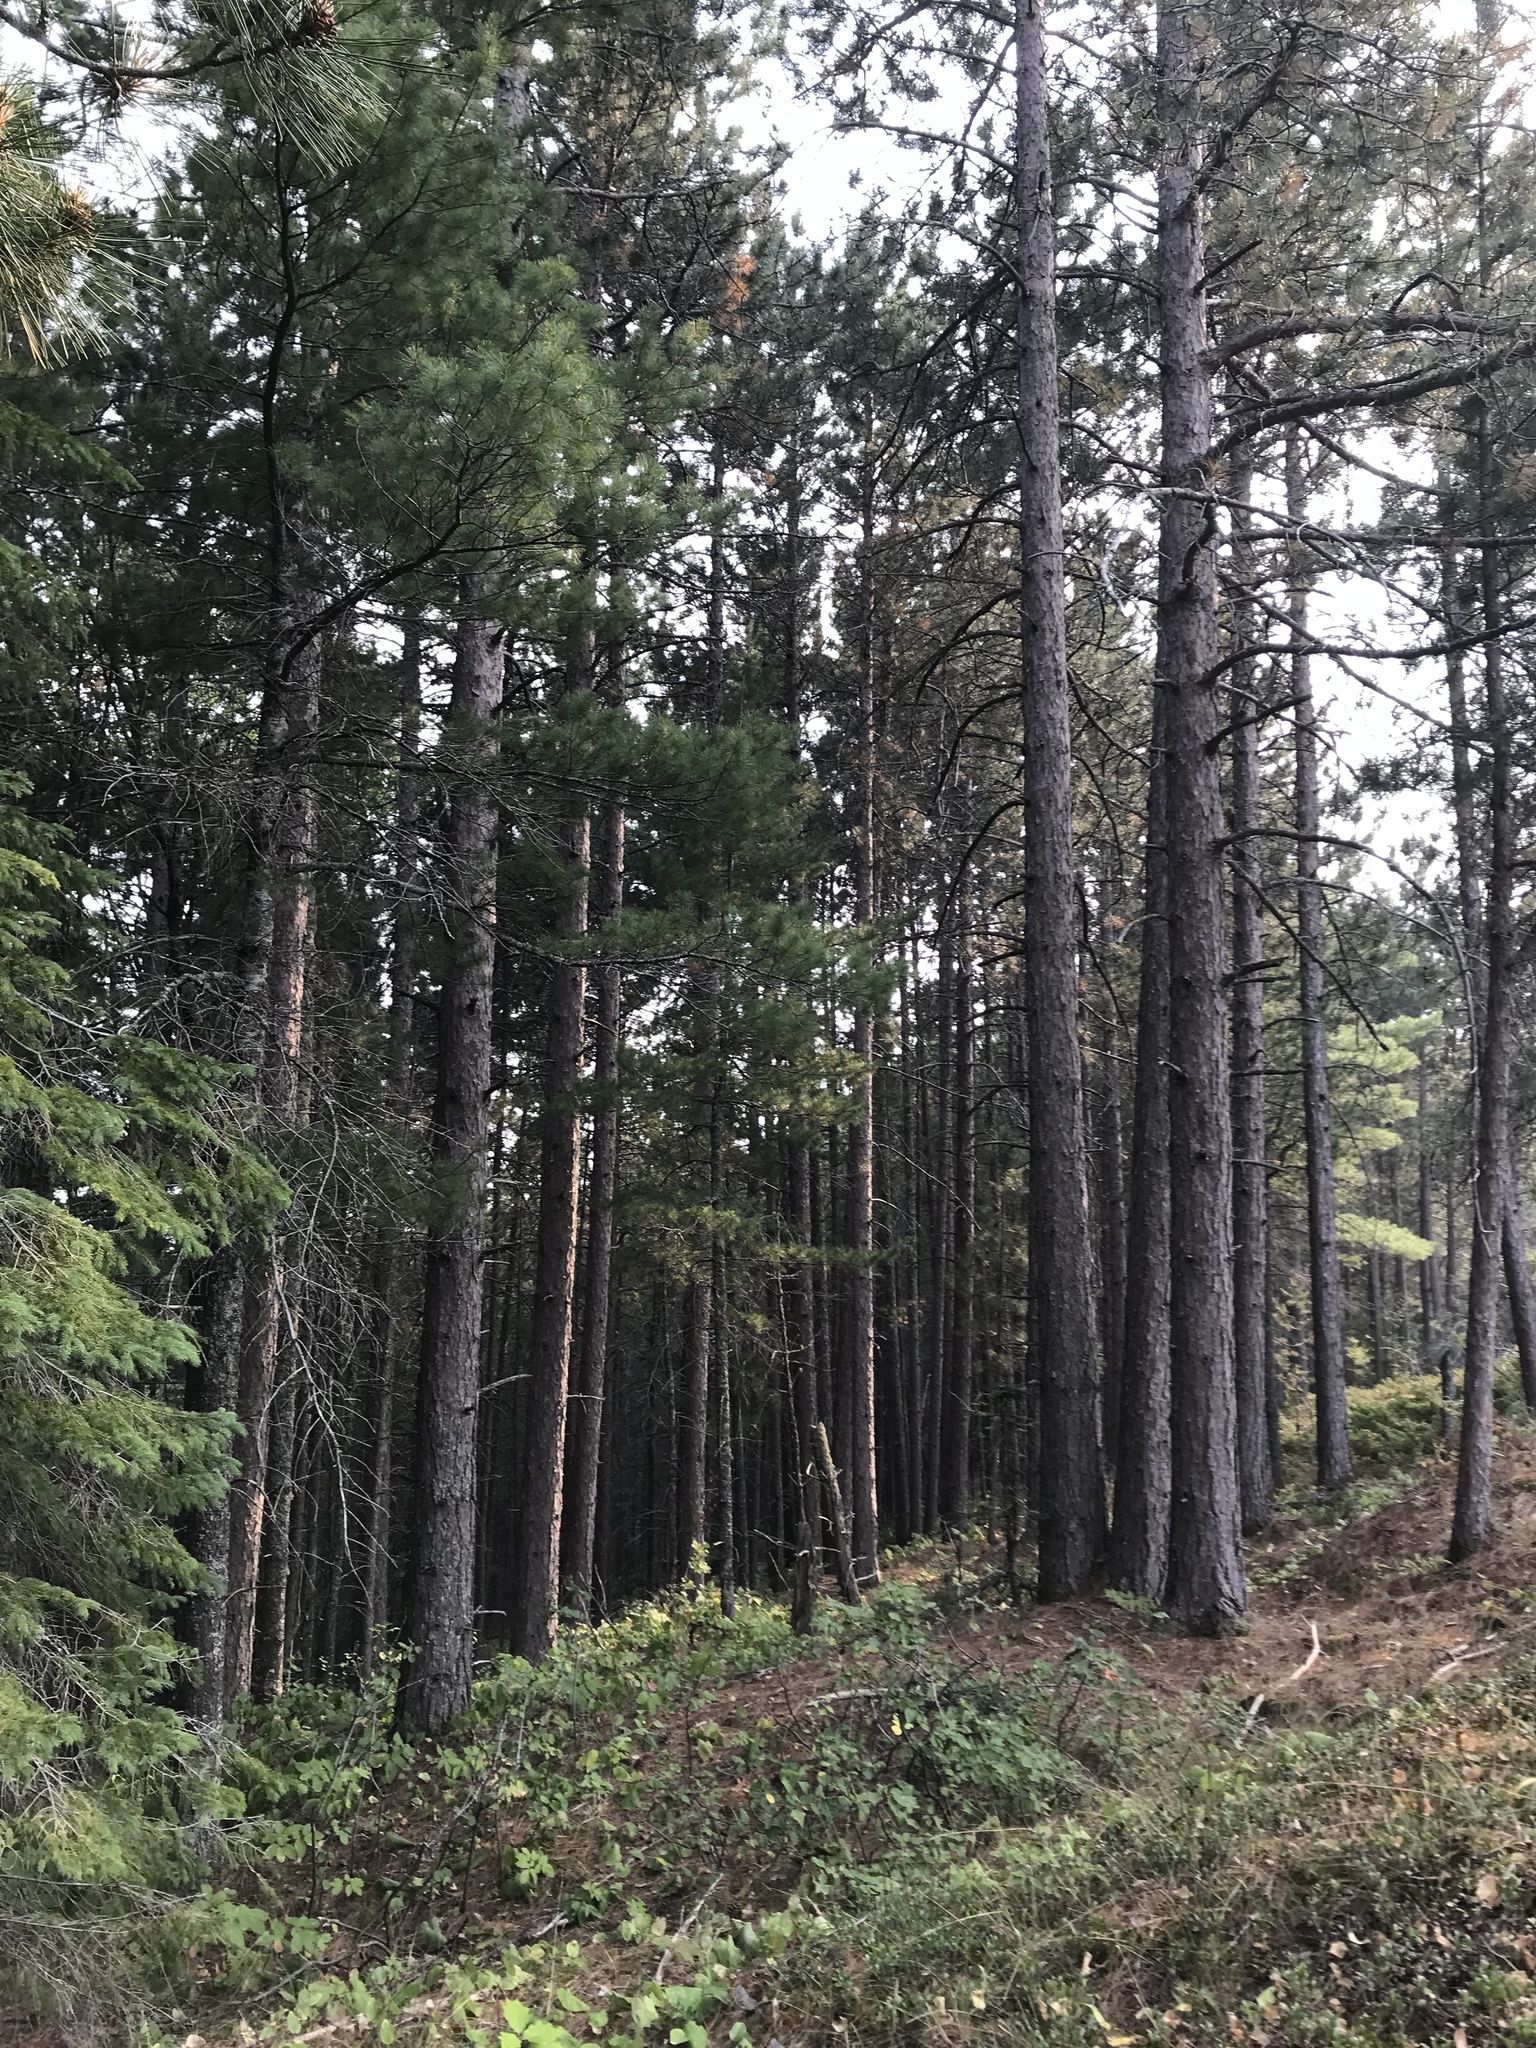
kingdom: Plantae
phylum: Tracheophyta
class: Pinopsida
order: Pinales
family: Pinaceae
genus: Pinus
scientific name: Pinus resinosa
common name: Norway pine
